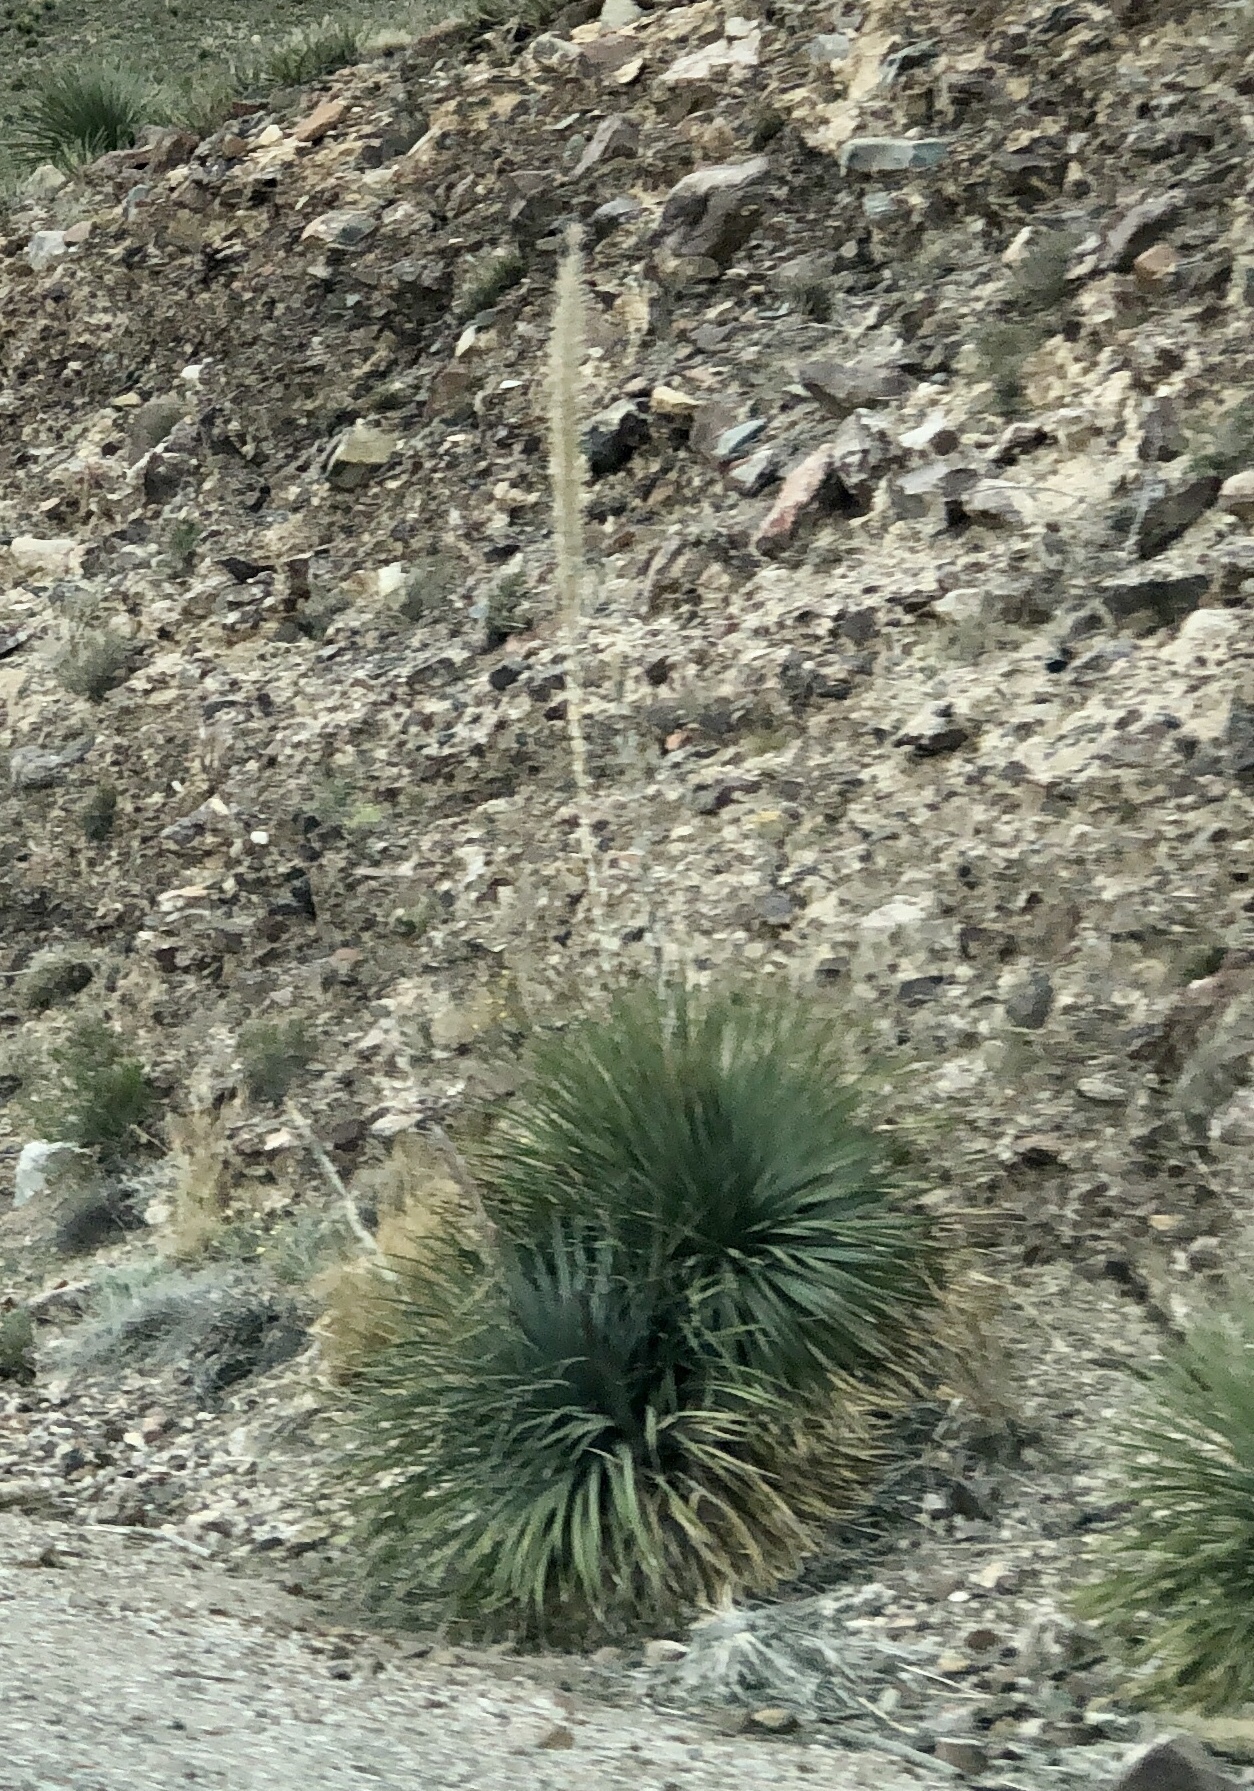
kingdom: Plantae
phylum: Tracheophyta
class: Liliopsida
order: Asparagales
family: Asparagaceae
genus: Dasylirion
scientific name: Dasylirion wheeleri
